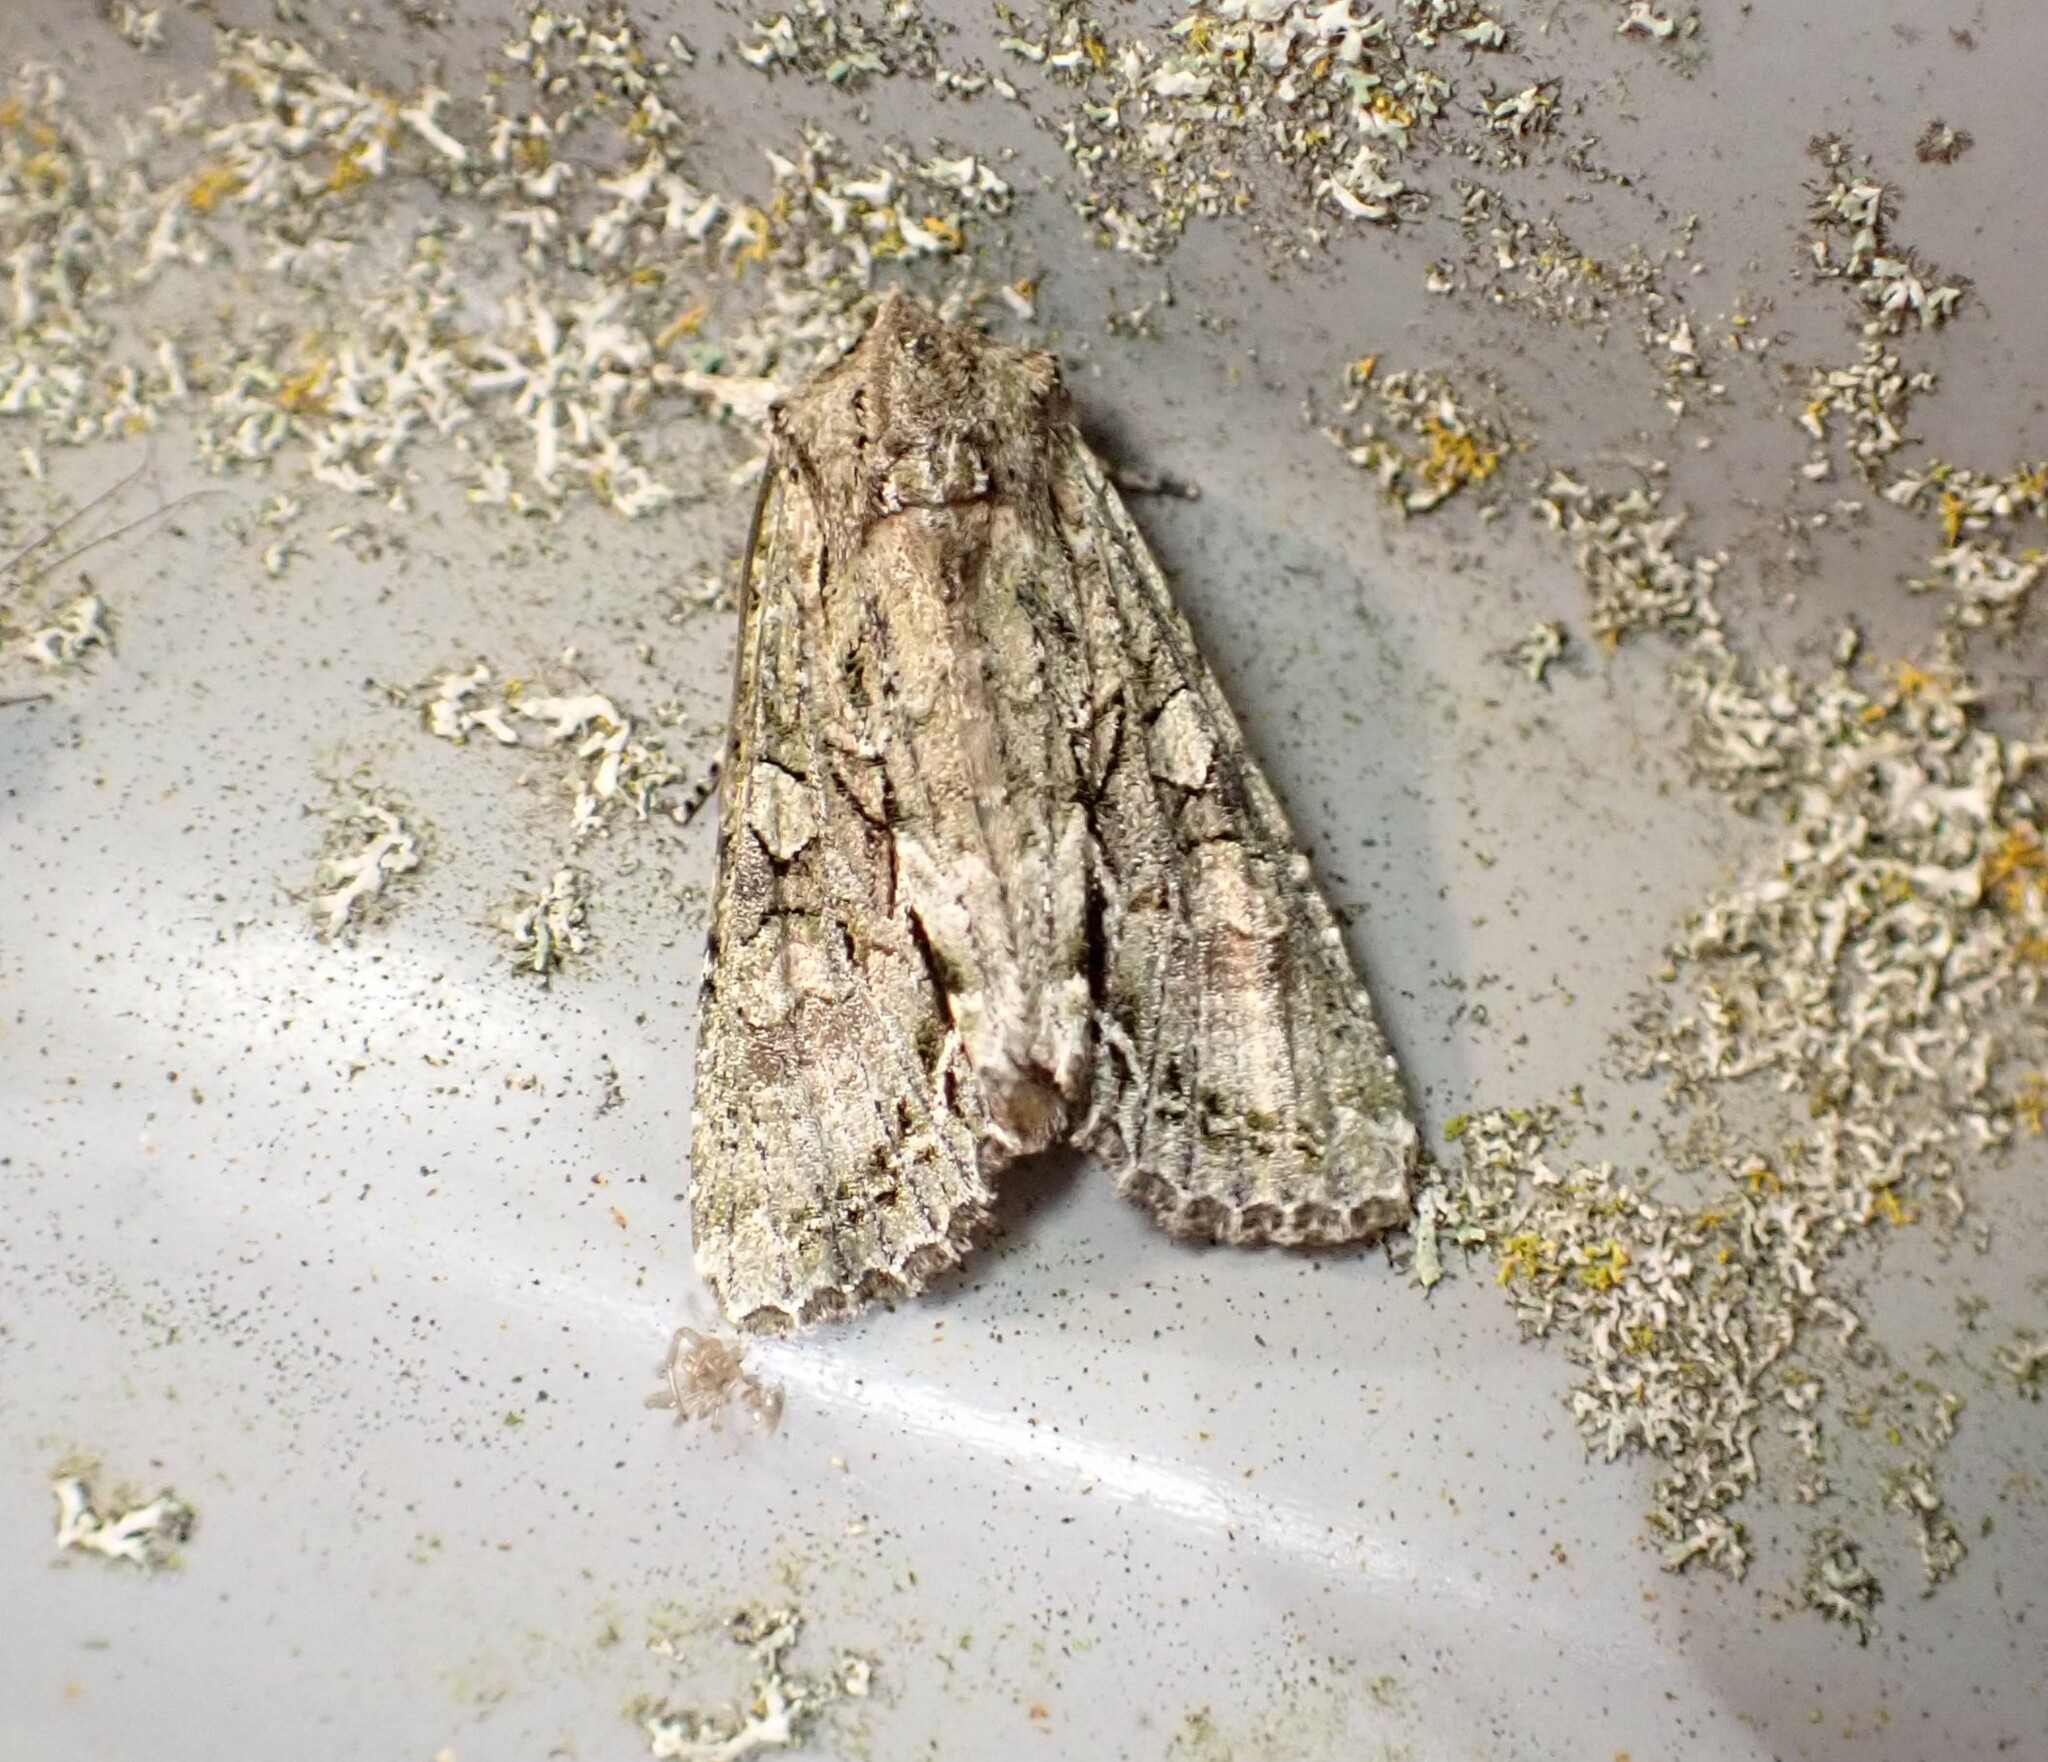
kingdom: Animalia
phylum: Arthropoda
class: Insecta
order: Lepidoptera
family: Noctuidae
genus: Ichneutica
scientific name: Ichneutica mutans
